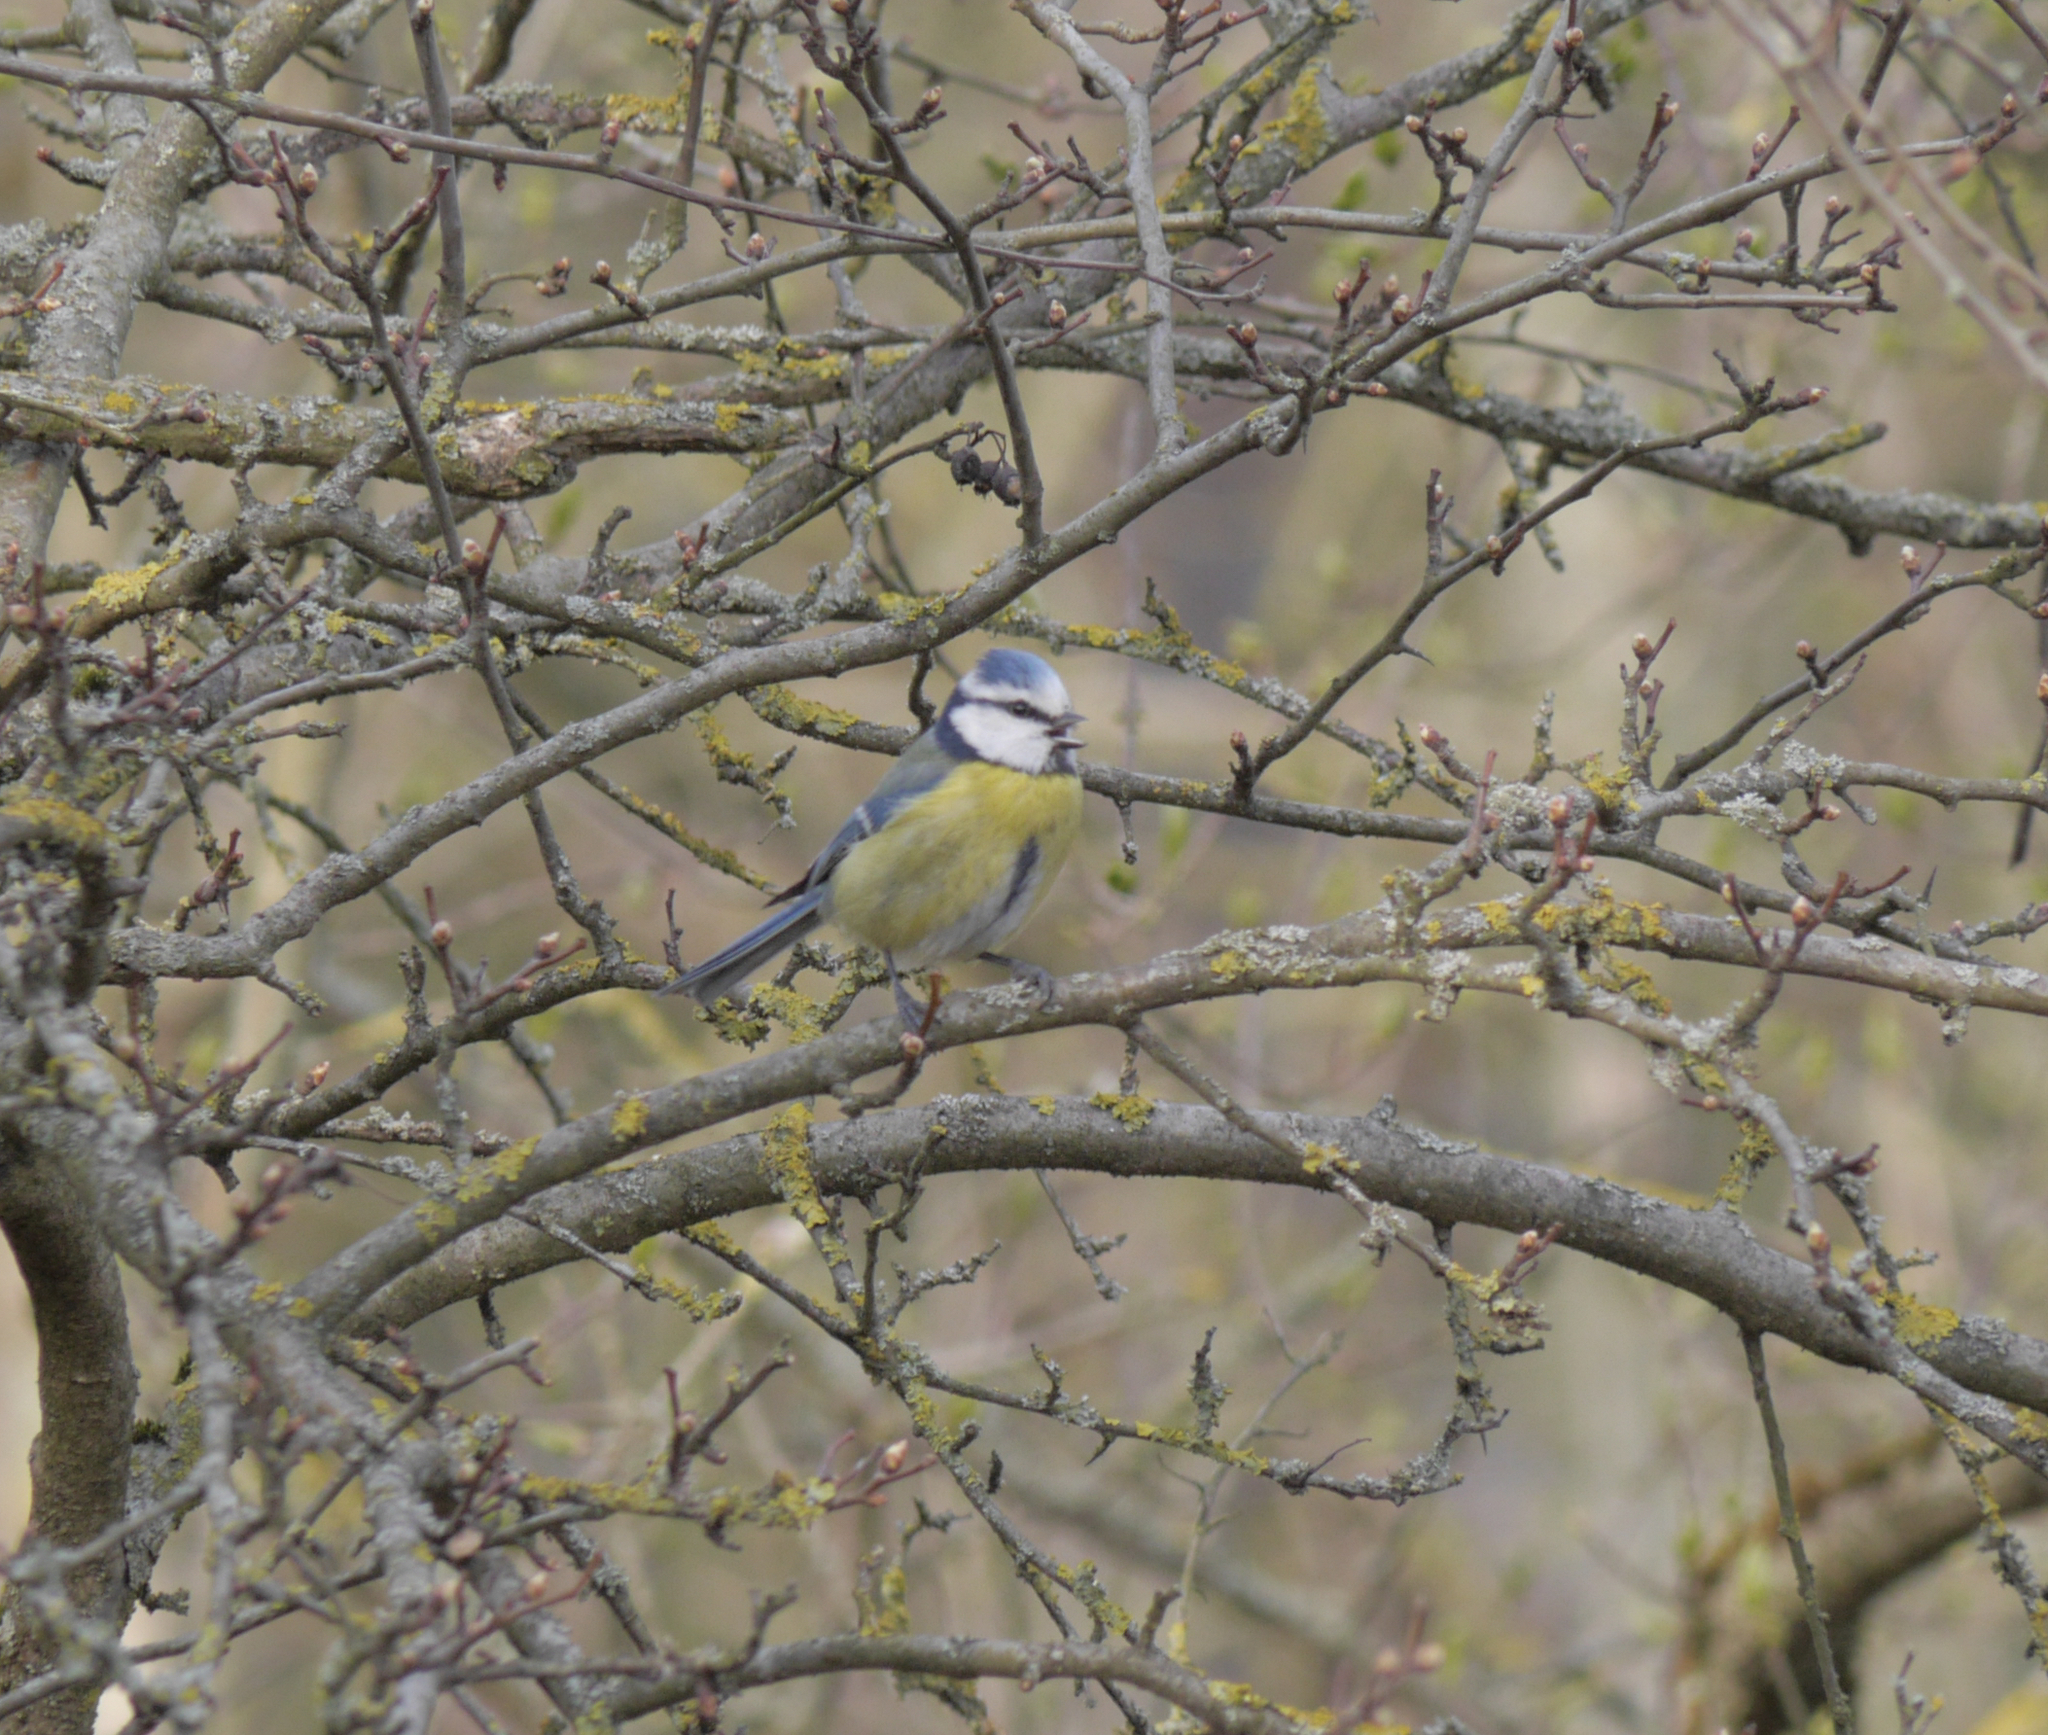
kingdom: Animalia
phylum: Chordata
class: Aves
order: Passeriformes
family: Paridae
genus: Cyanistes
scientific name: Cyanistes caeruleus
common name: Eurasian blue tit
